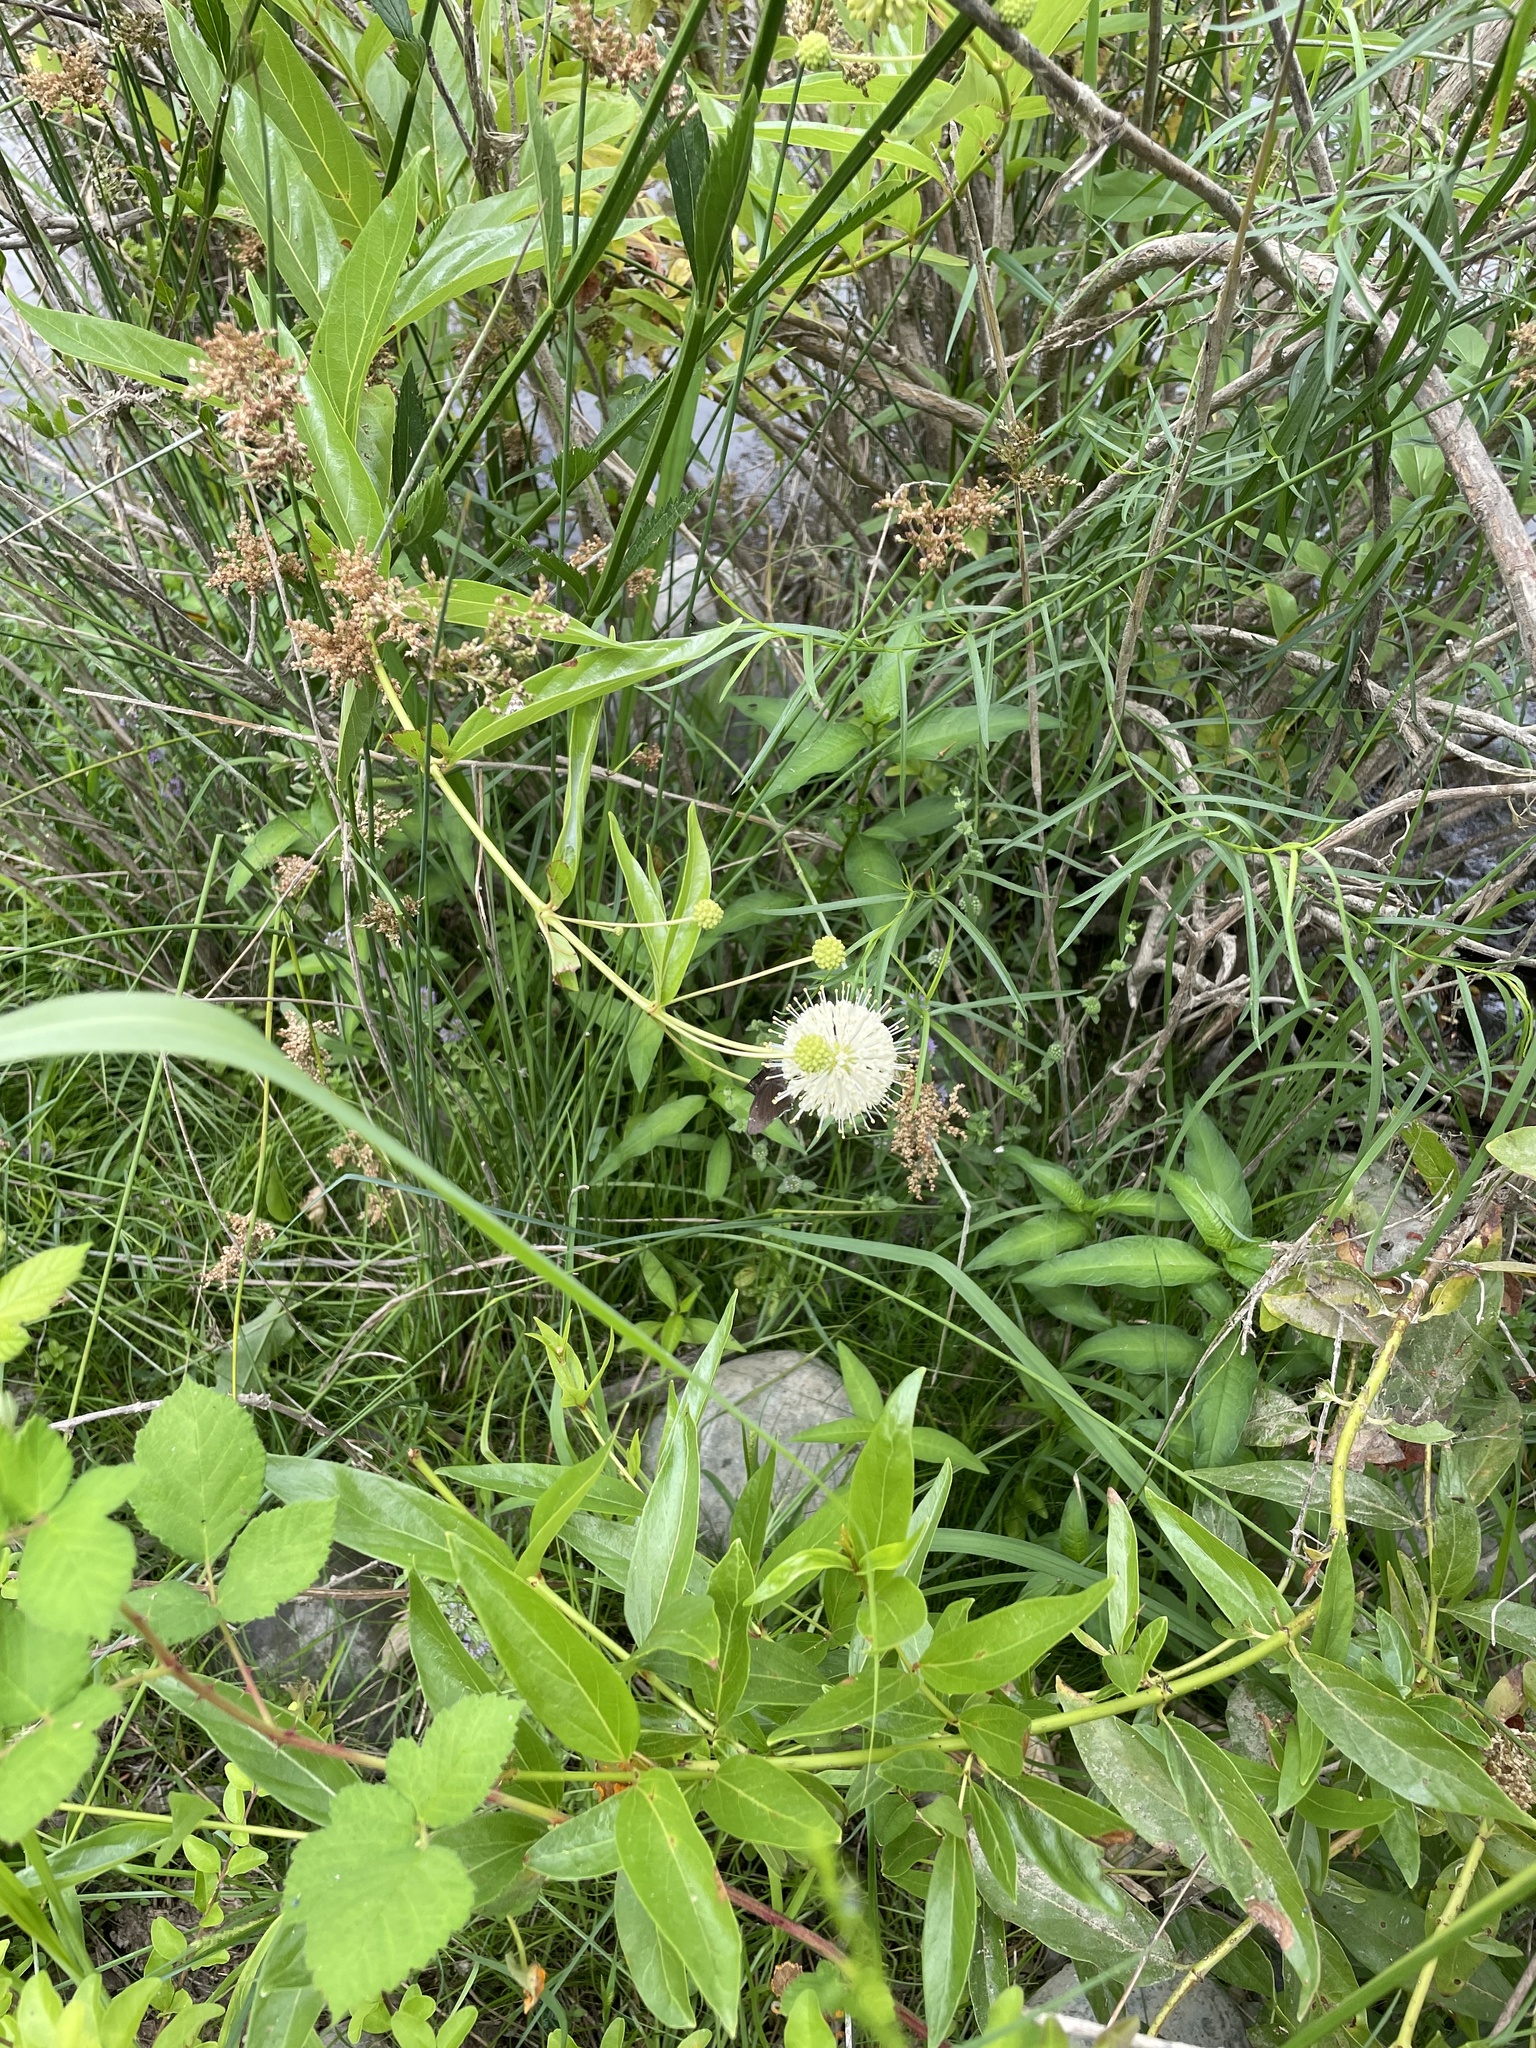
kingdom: Plantae
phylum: Tracheophyta
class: Magnoliopsida
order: Gentianales
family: Rubiaceae
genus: Cephalanthus
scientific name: Cephalanthus occidentalis
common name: Button-willow
